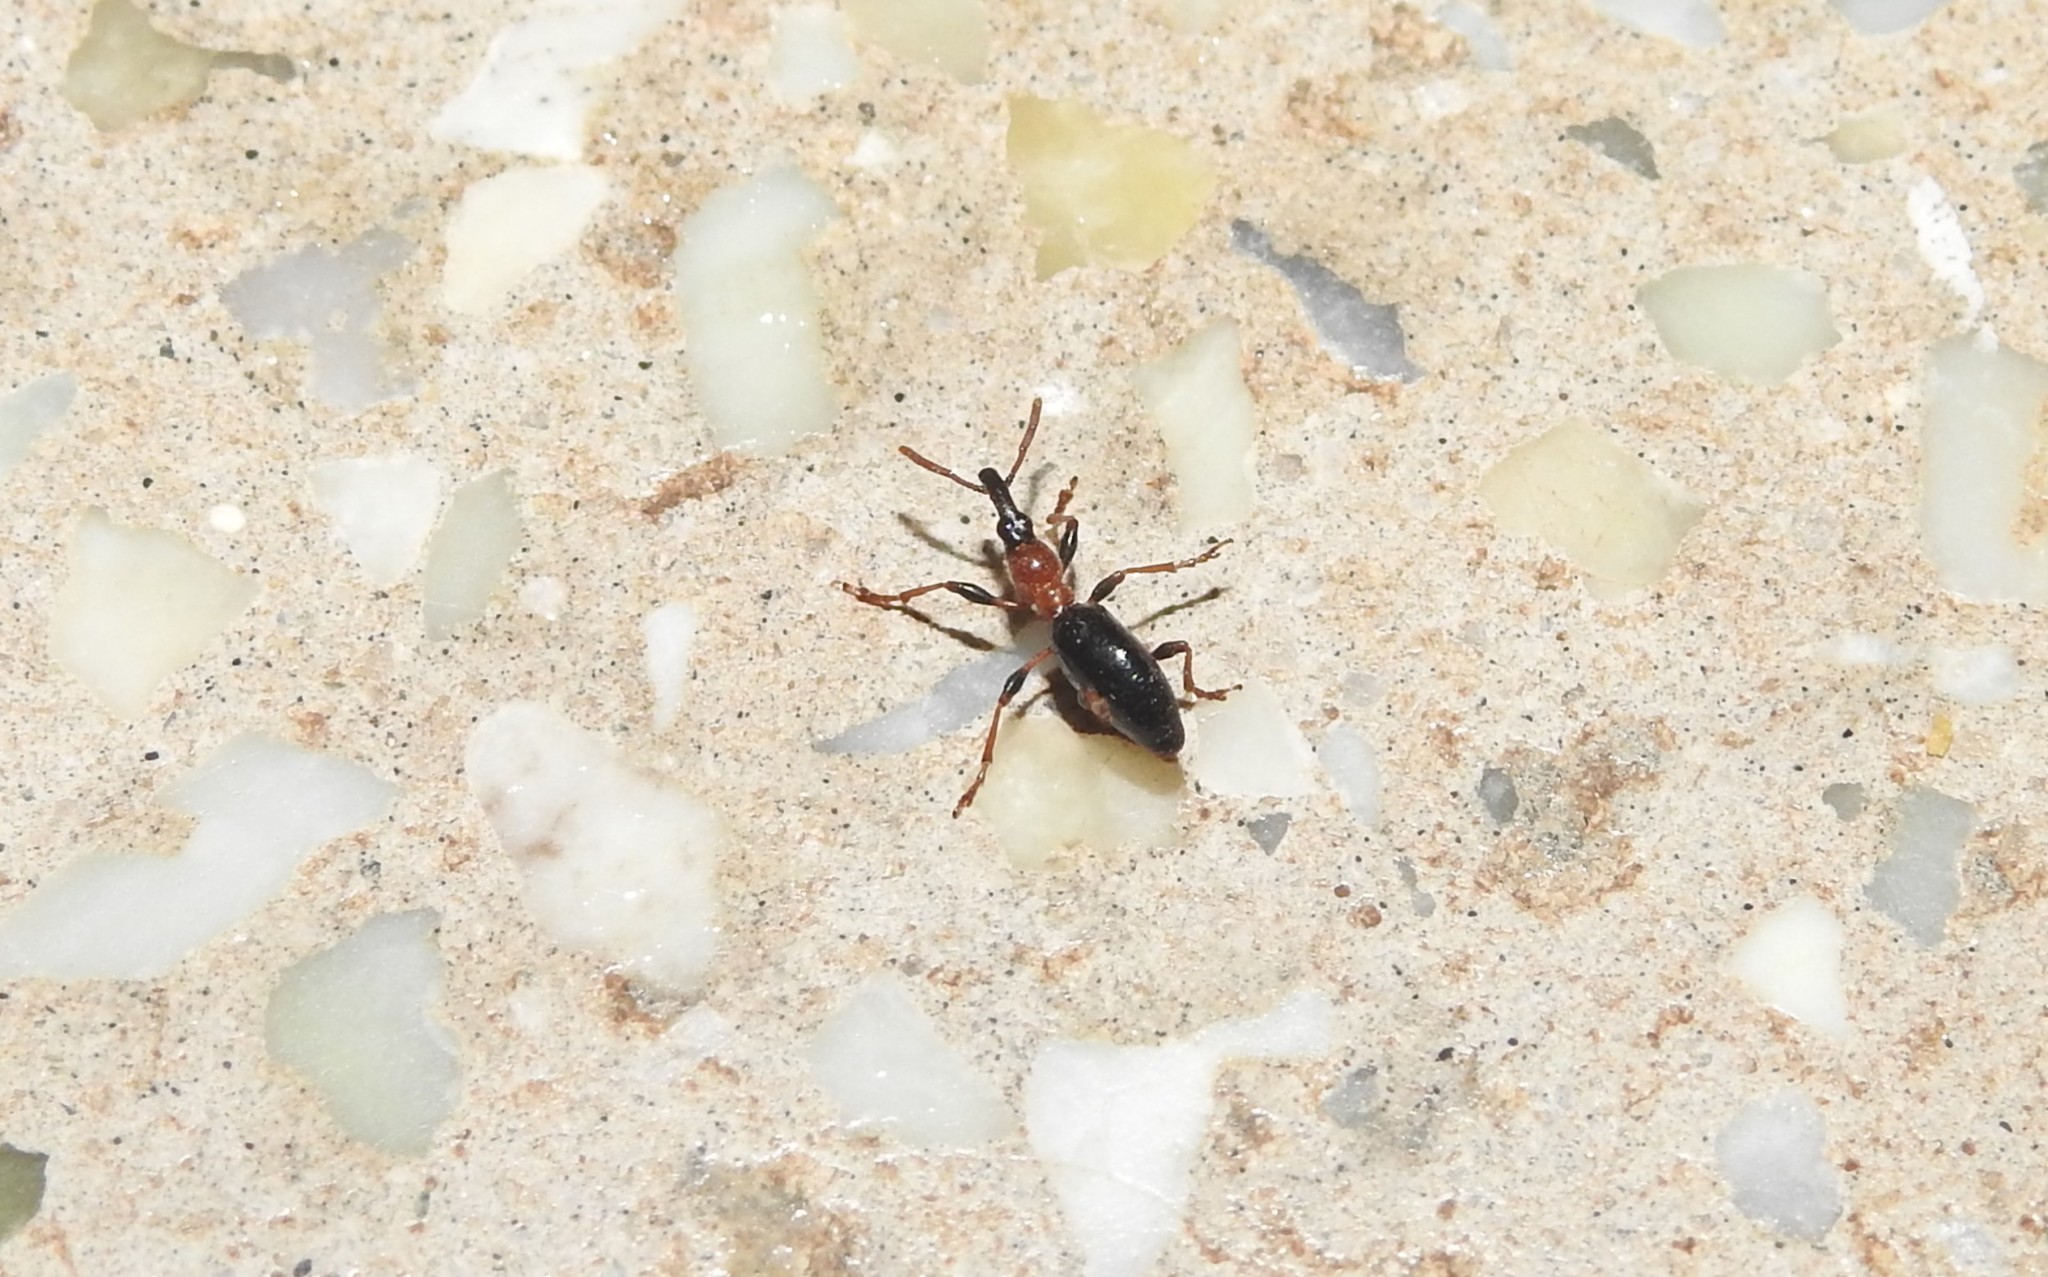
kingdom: Animalia
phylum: Arthropoda
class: Insecta
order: Coleoptera
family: Brentidae
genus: Cylas
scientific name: Cylas formicarius
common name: Sweetpotato weevil
